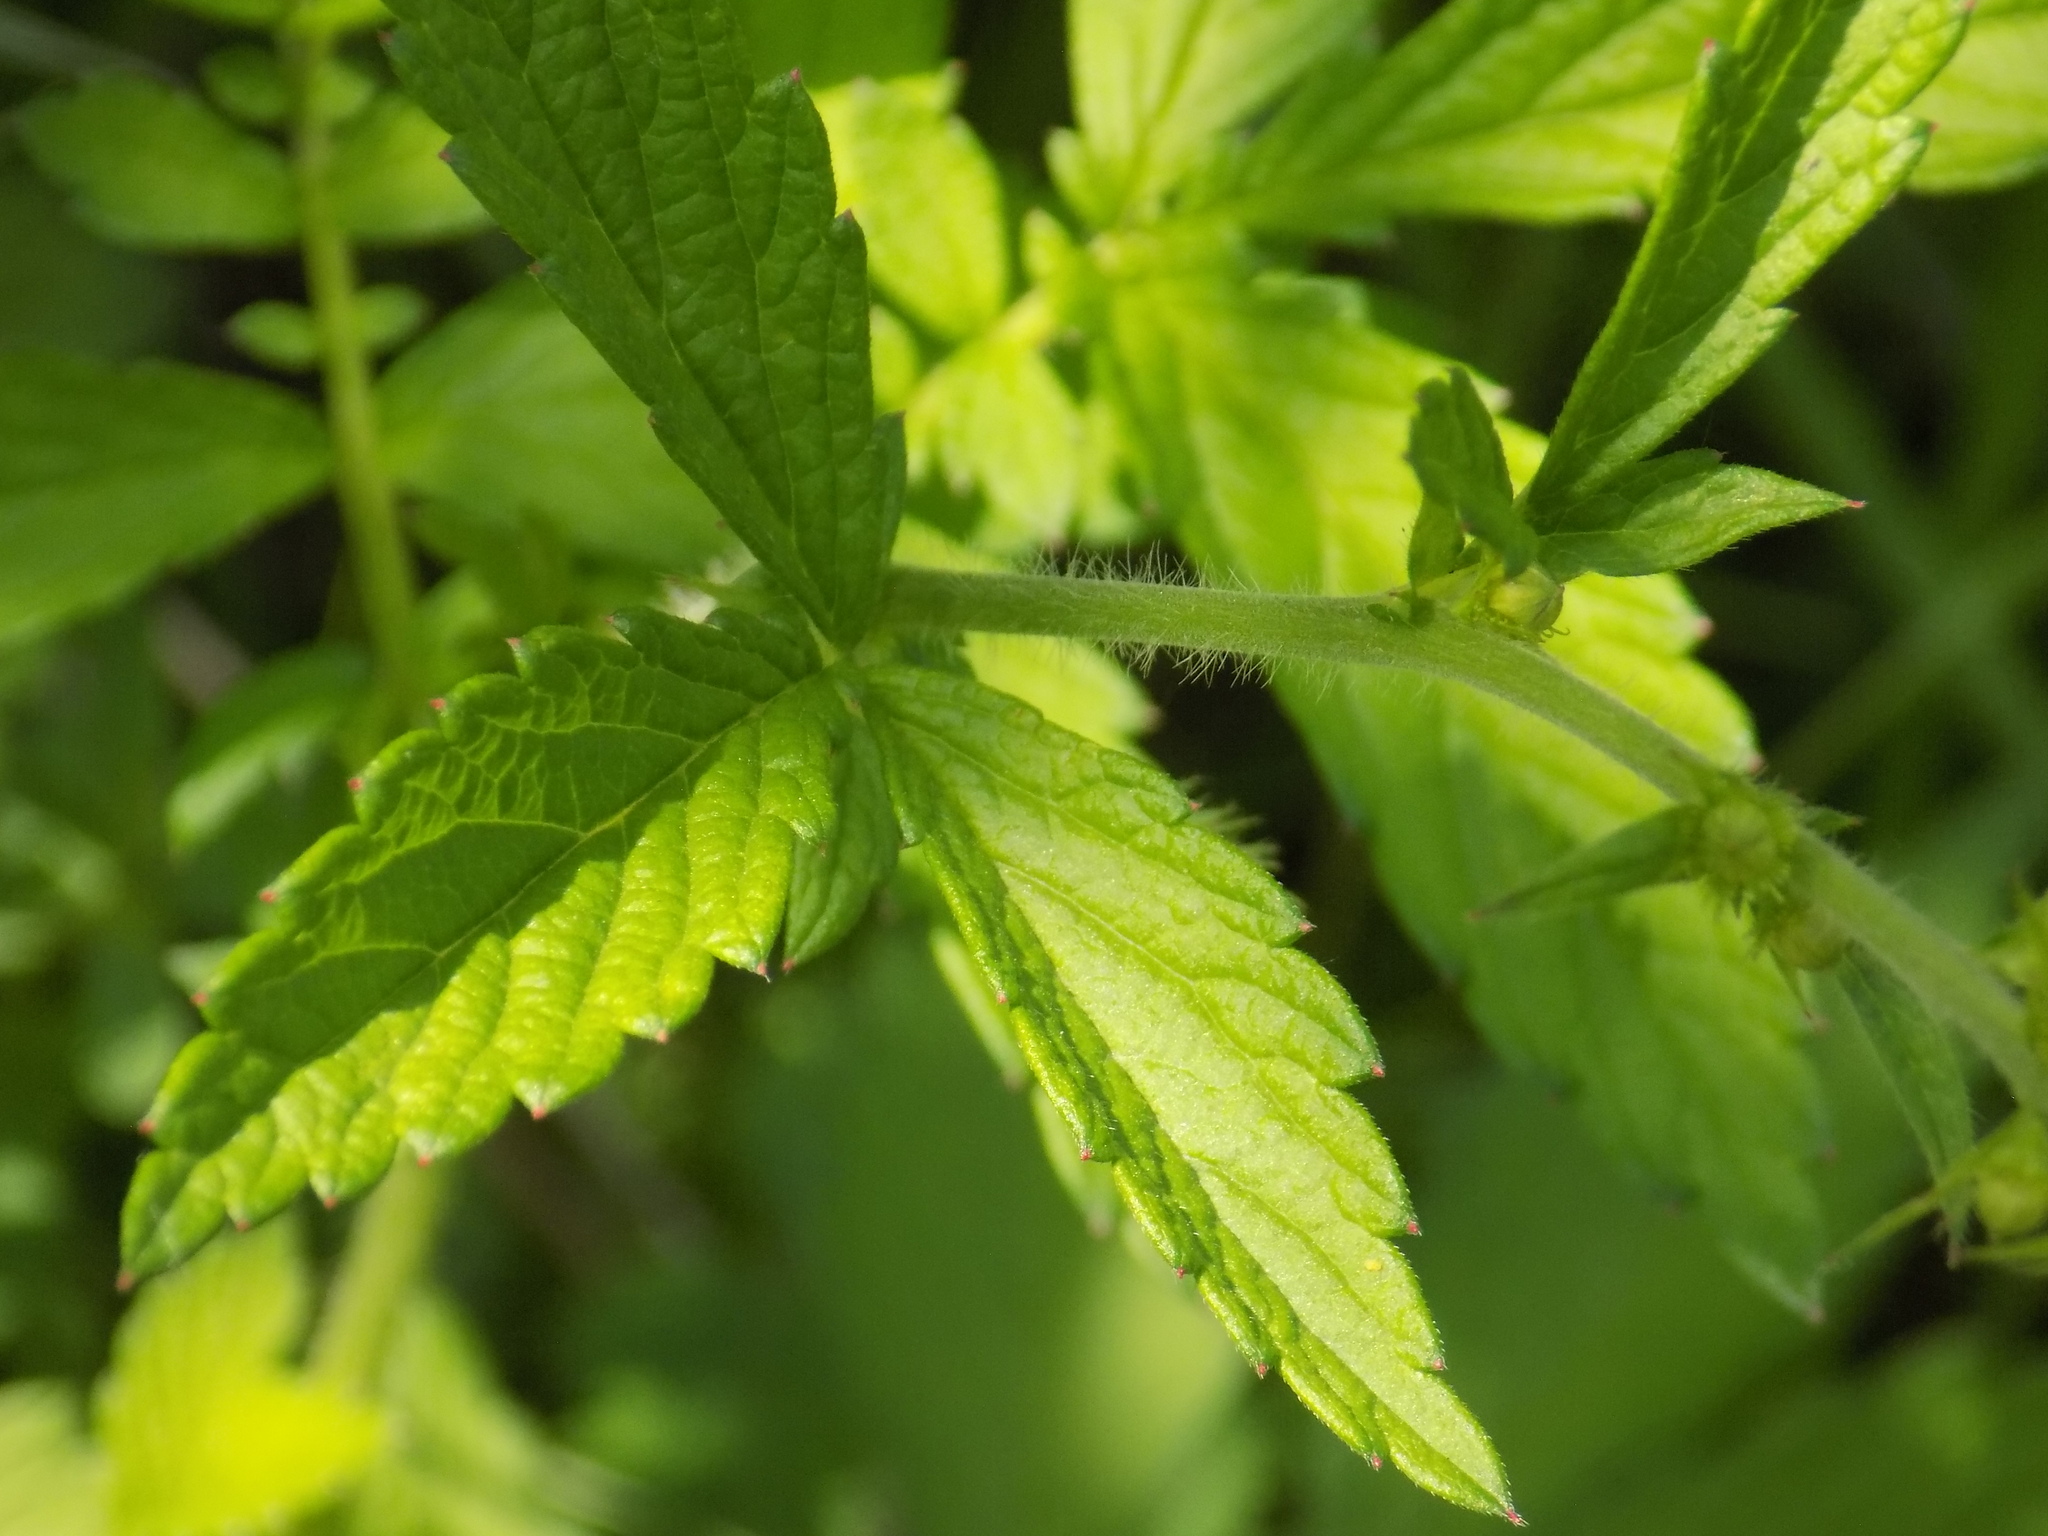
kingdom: Plantae
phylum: Tracheophyta
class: Magnoliopsida
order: Rosales
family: Rosaceae
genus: Agrimonia
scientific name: Agrimonia eupatoria
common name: Agrimony
